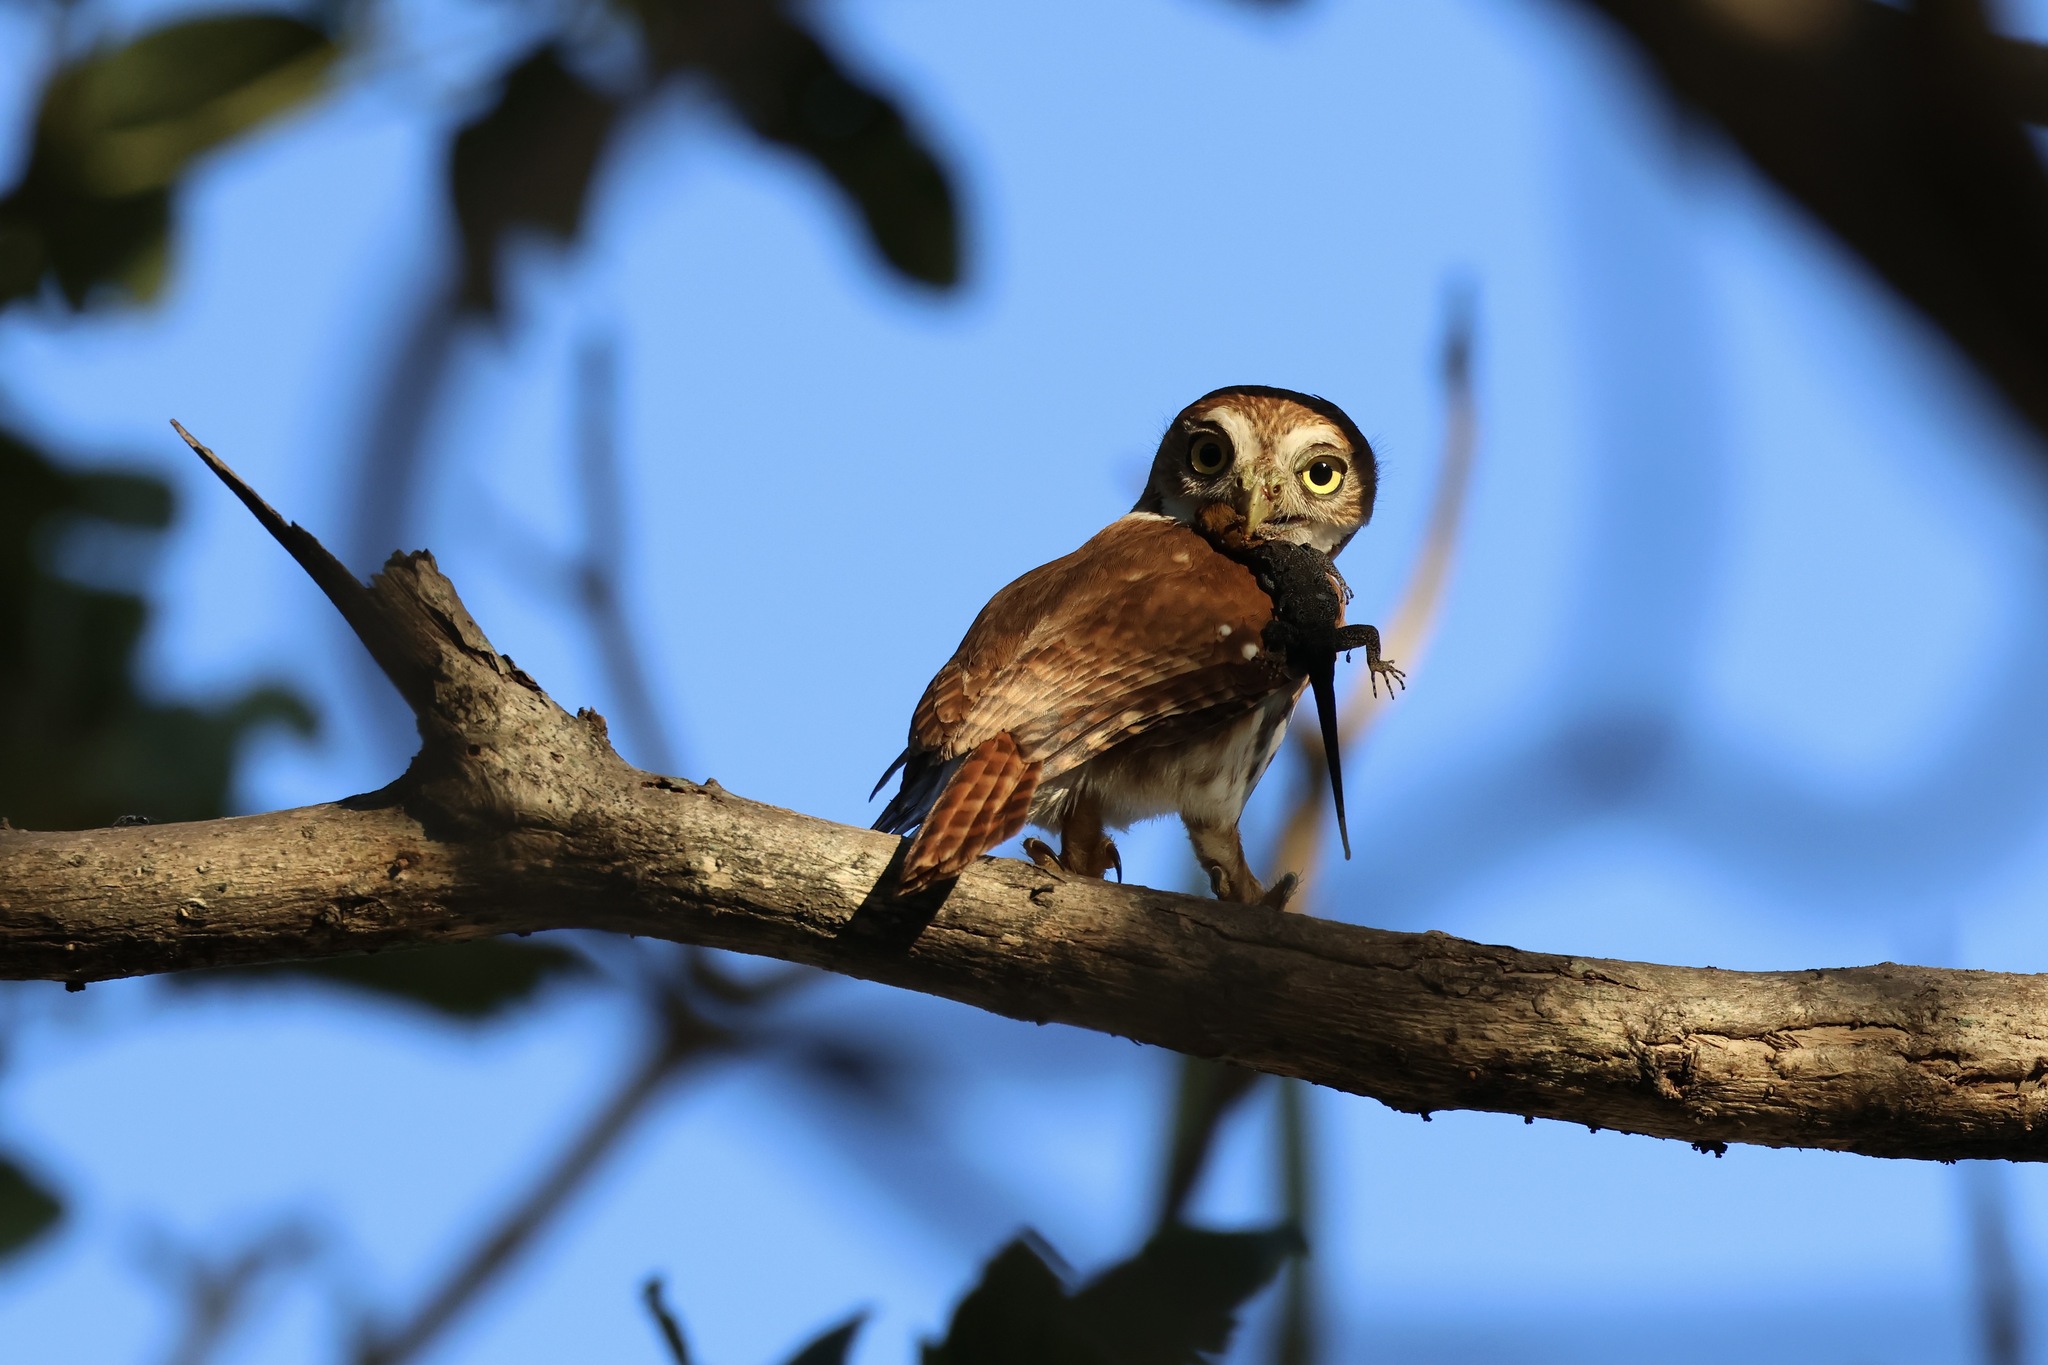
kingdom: Animalia
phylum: Chordata
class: Aves
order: Strigiformes
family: Strigidae
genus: Glaucidium
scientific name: Glaucidium brasilianum
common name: Ferruginous pygmy-owl
